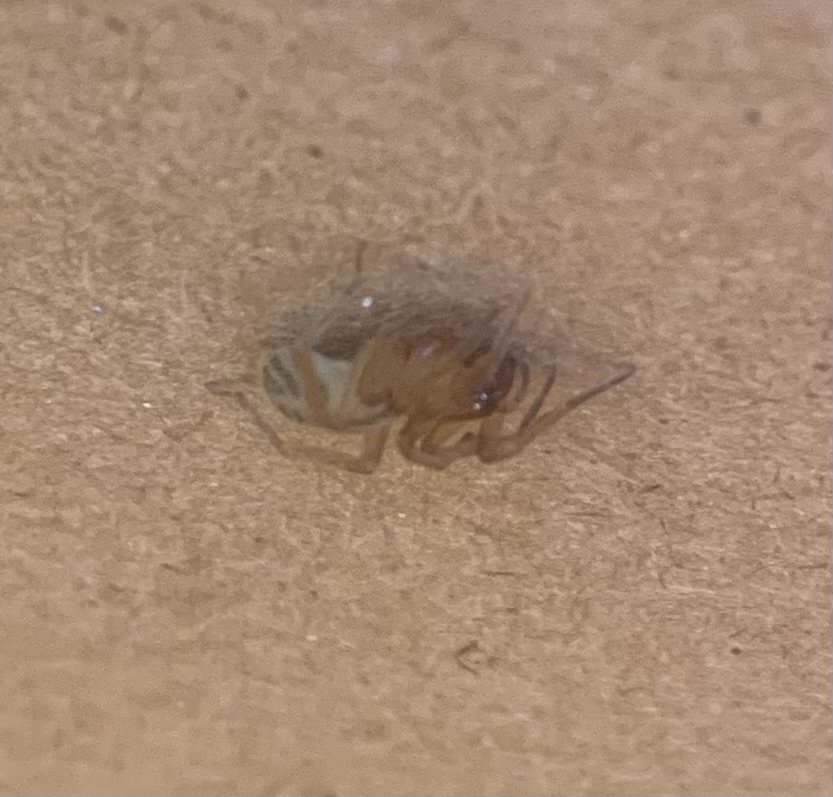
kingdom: Animalia
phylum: Arthropoda
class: Arachnida
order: Araneae
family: Clubionidae
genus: Elaver
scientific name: Elaver excepta
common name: White sac spider
